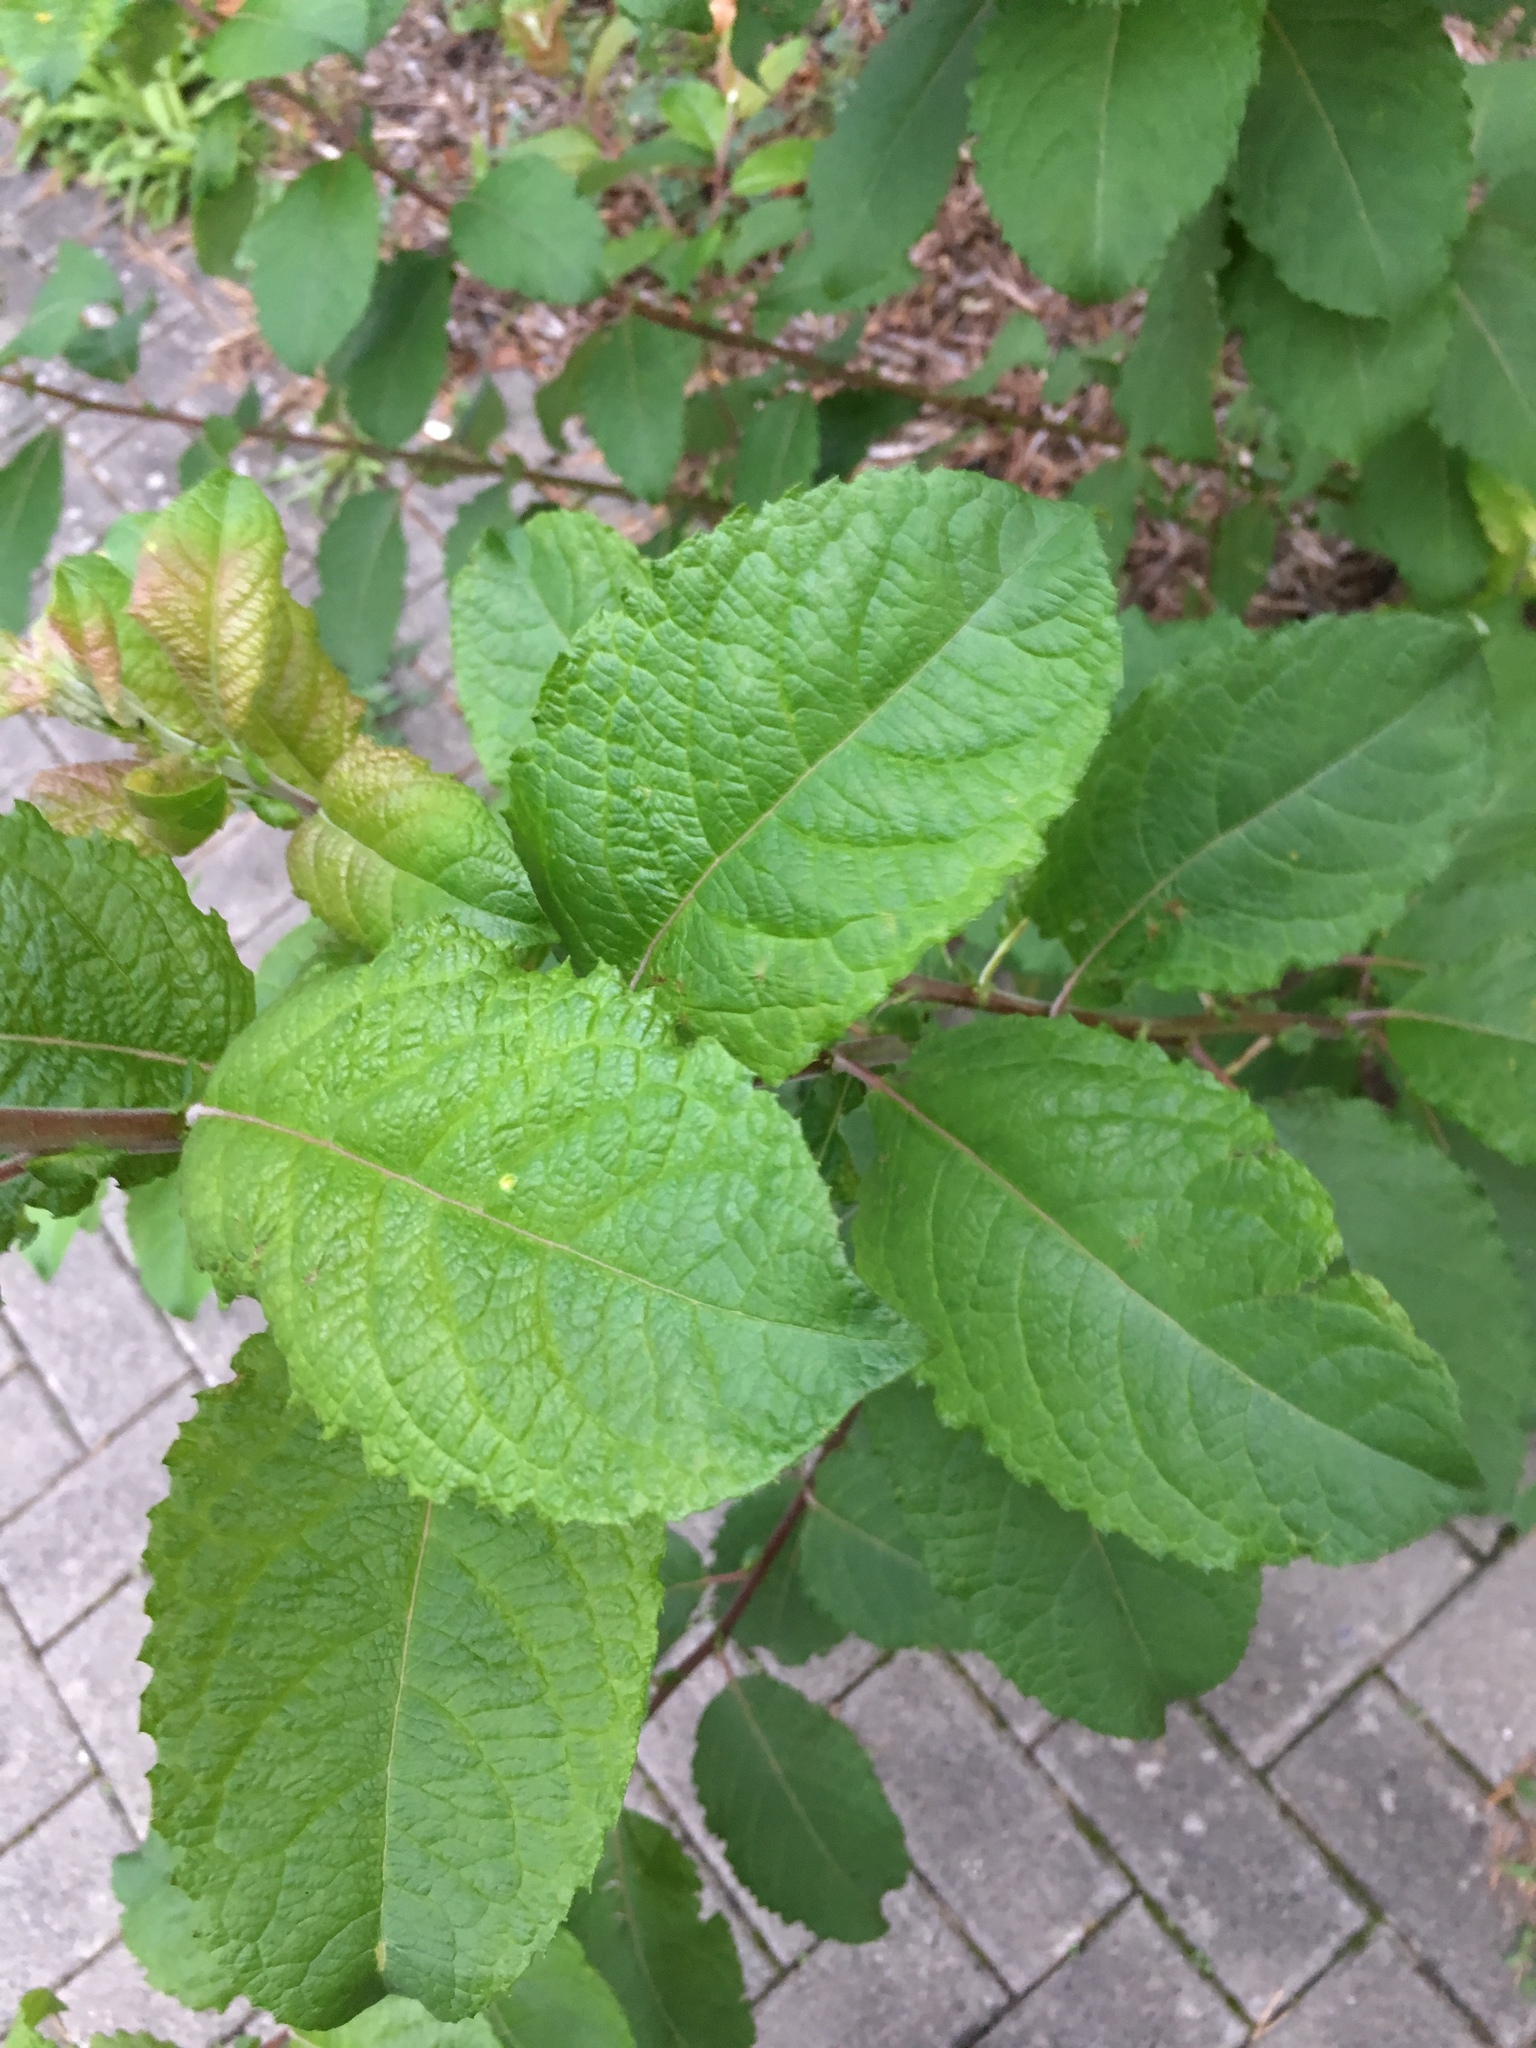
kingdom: Plantae
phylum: Tracheophyta
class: Magnoliopsida
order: Malpighiales
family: Salicaceae
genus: Salix
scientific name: Salix caprea
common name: Goat willow
